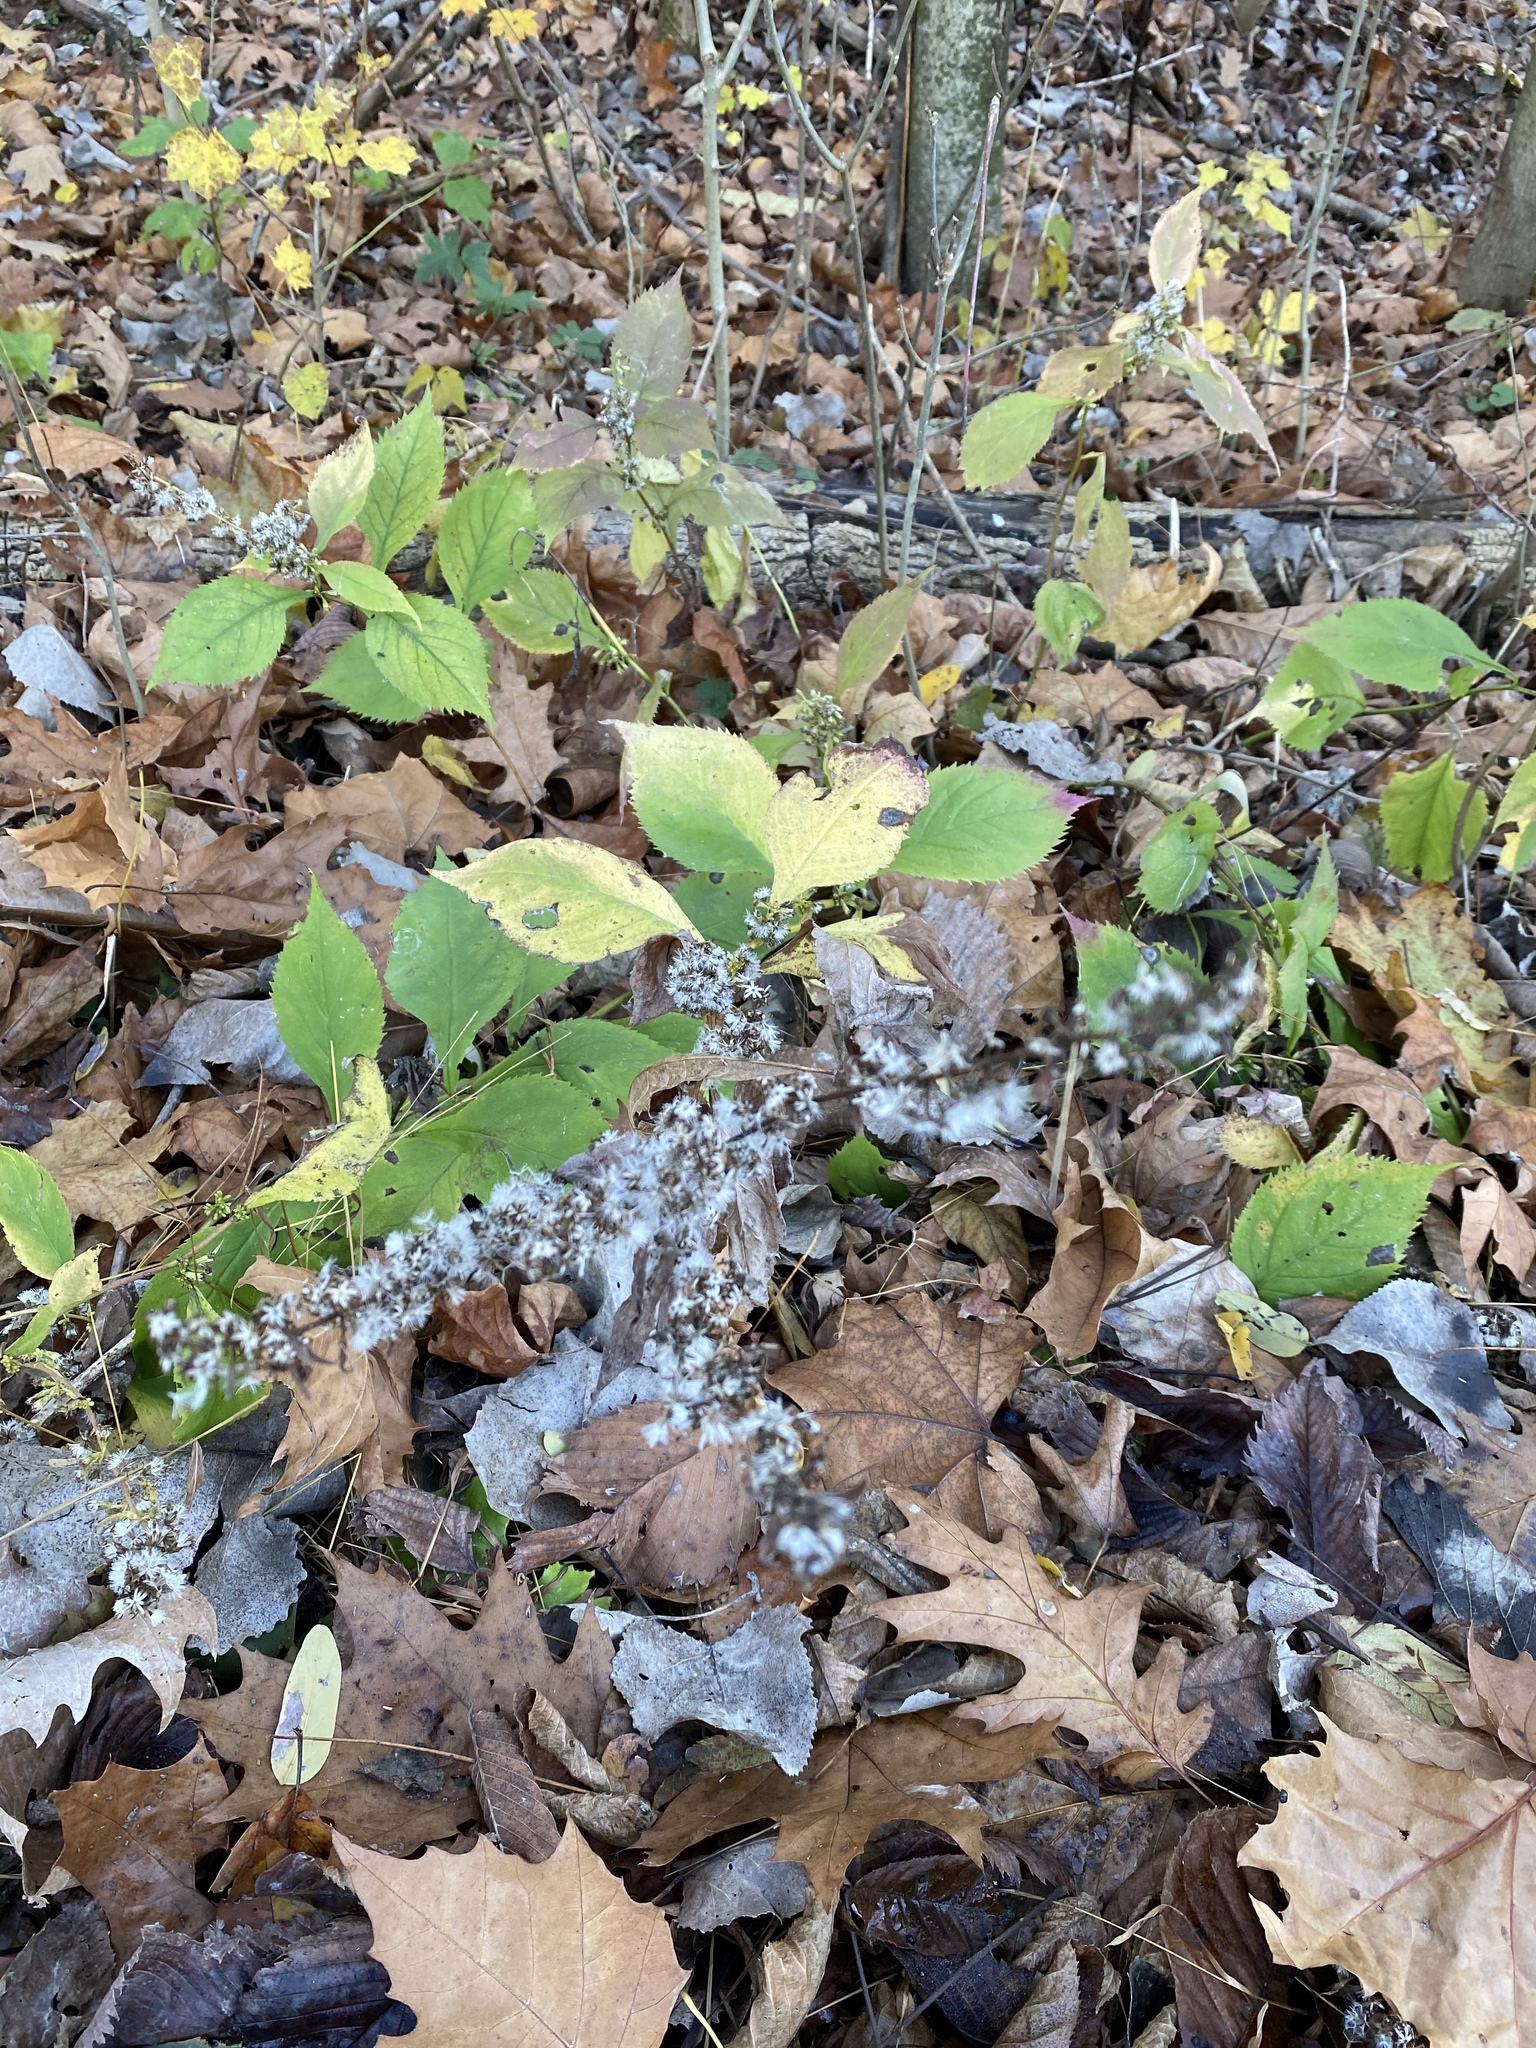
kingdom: Plantae
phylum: Tracheophyta
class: Magnoliopsida
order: Asterales
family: Asteraceae
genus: Solidago
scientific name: Solidago flexicaulis
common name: Zig-zag goldenrod
